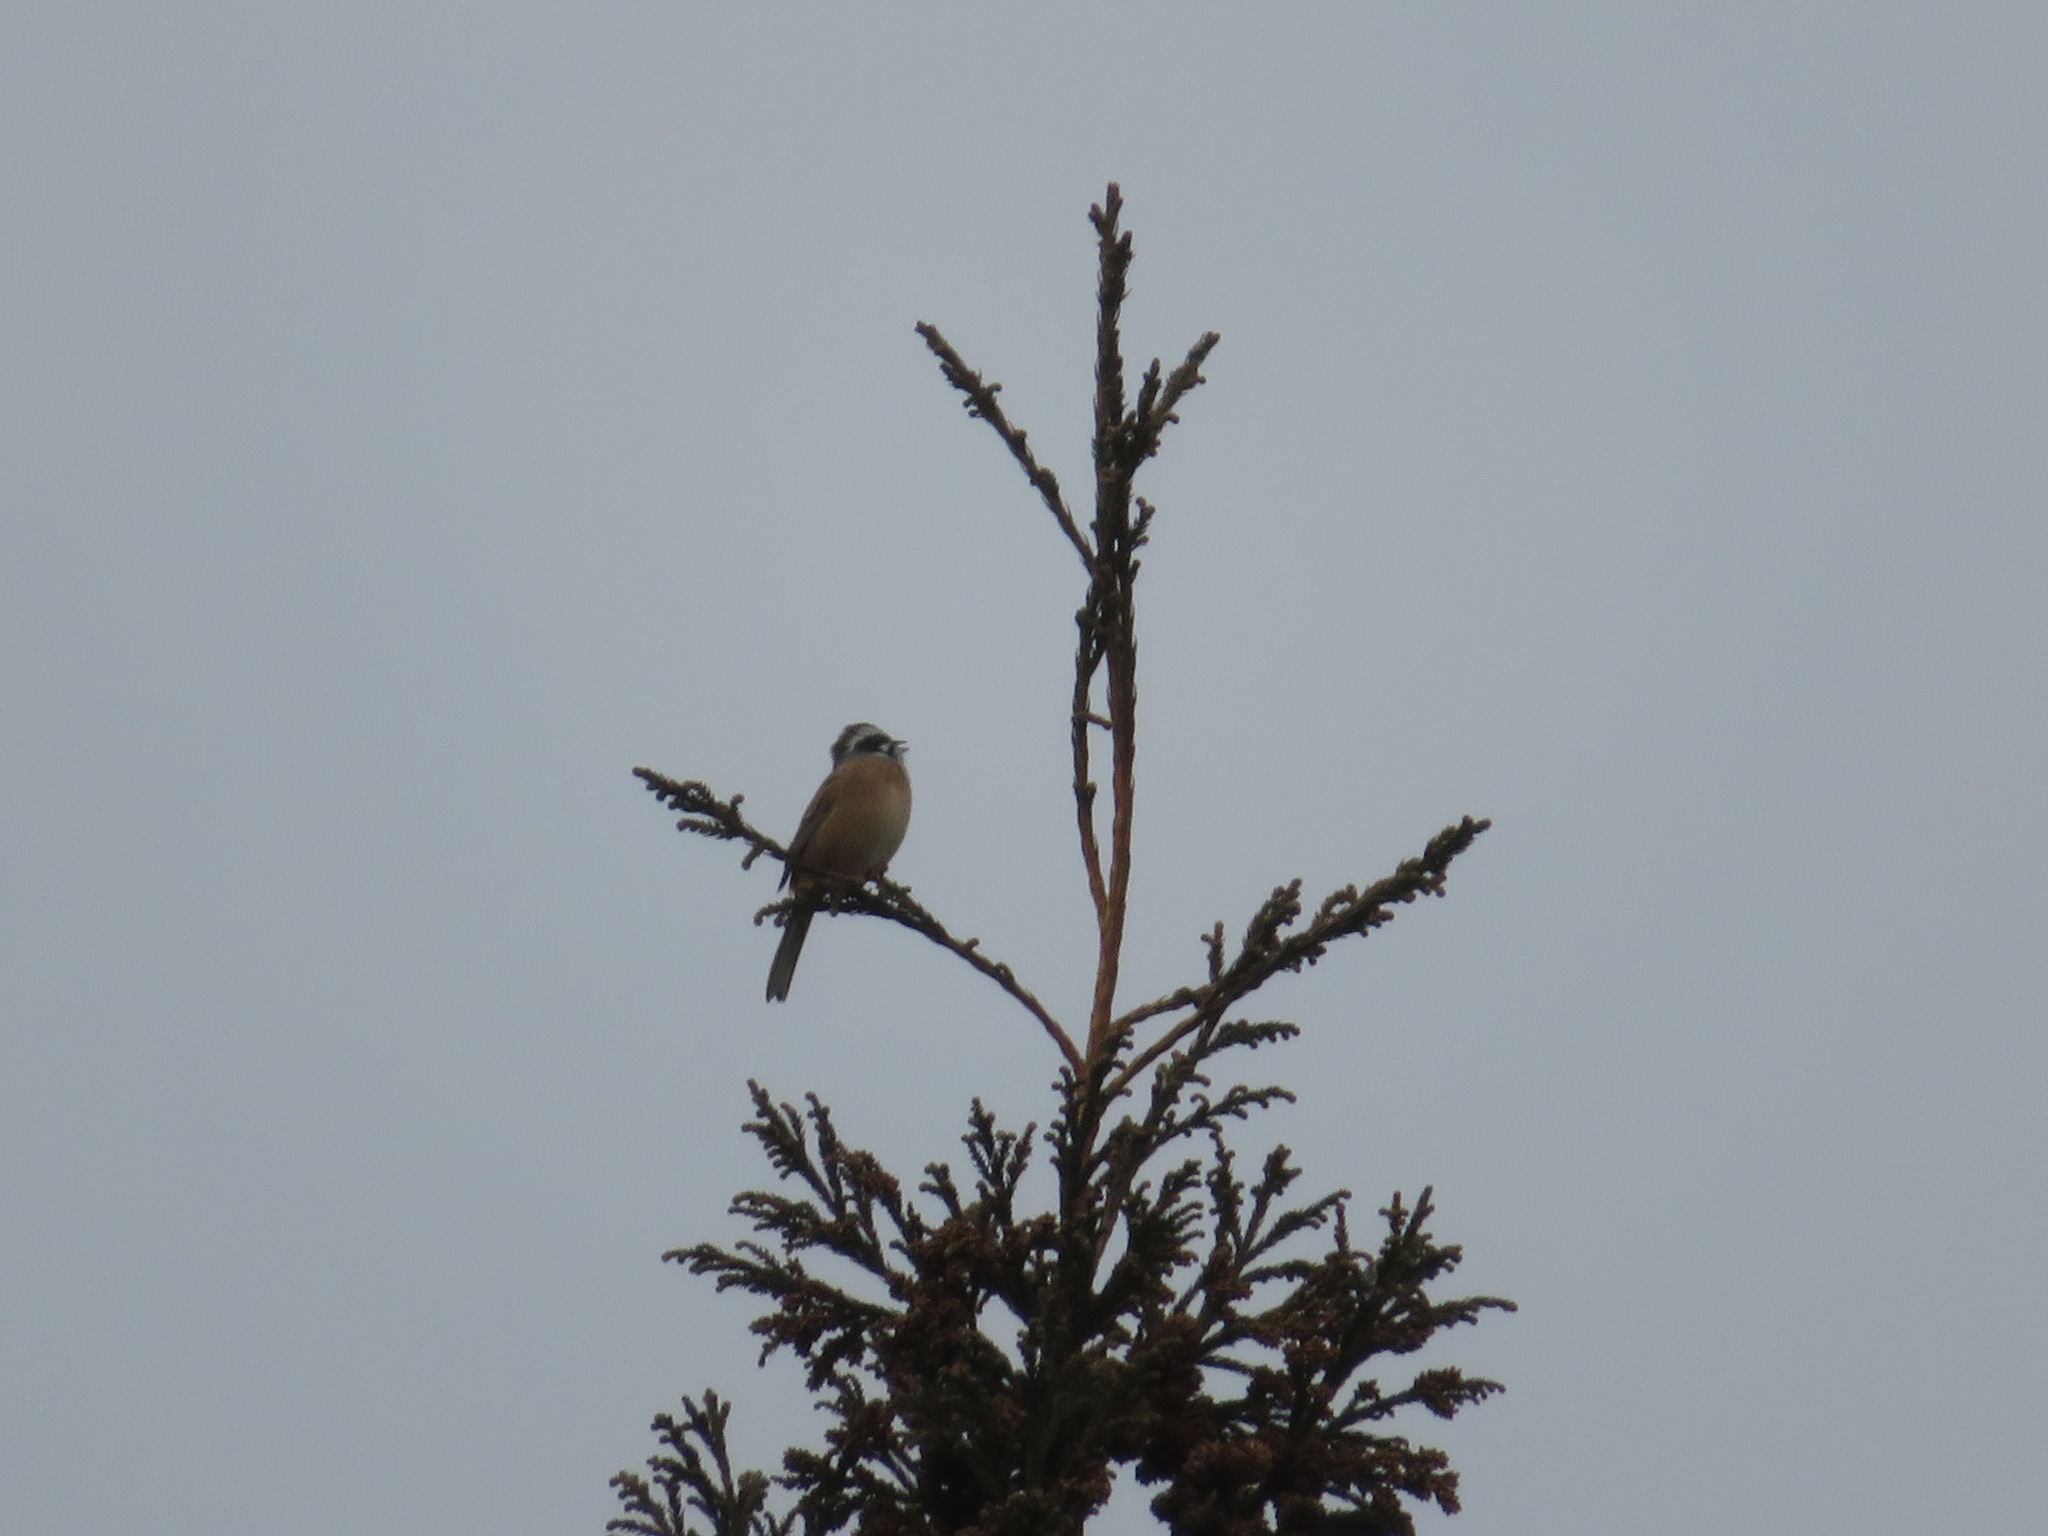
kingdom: Animalia
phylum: Chordata
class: Aves
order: Passeriformes
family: Emberizidae
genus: Emberiza
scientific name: Emberiza cioides
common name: Meadow bunting
